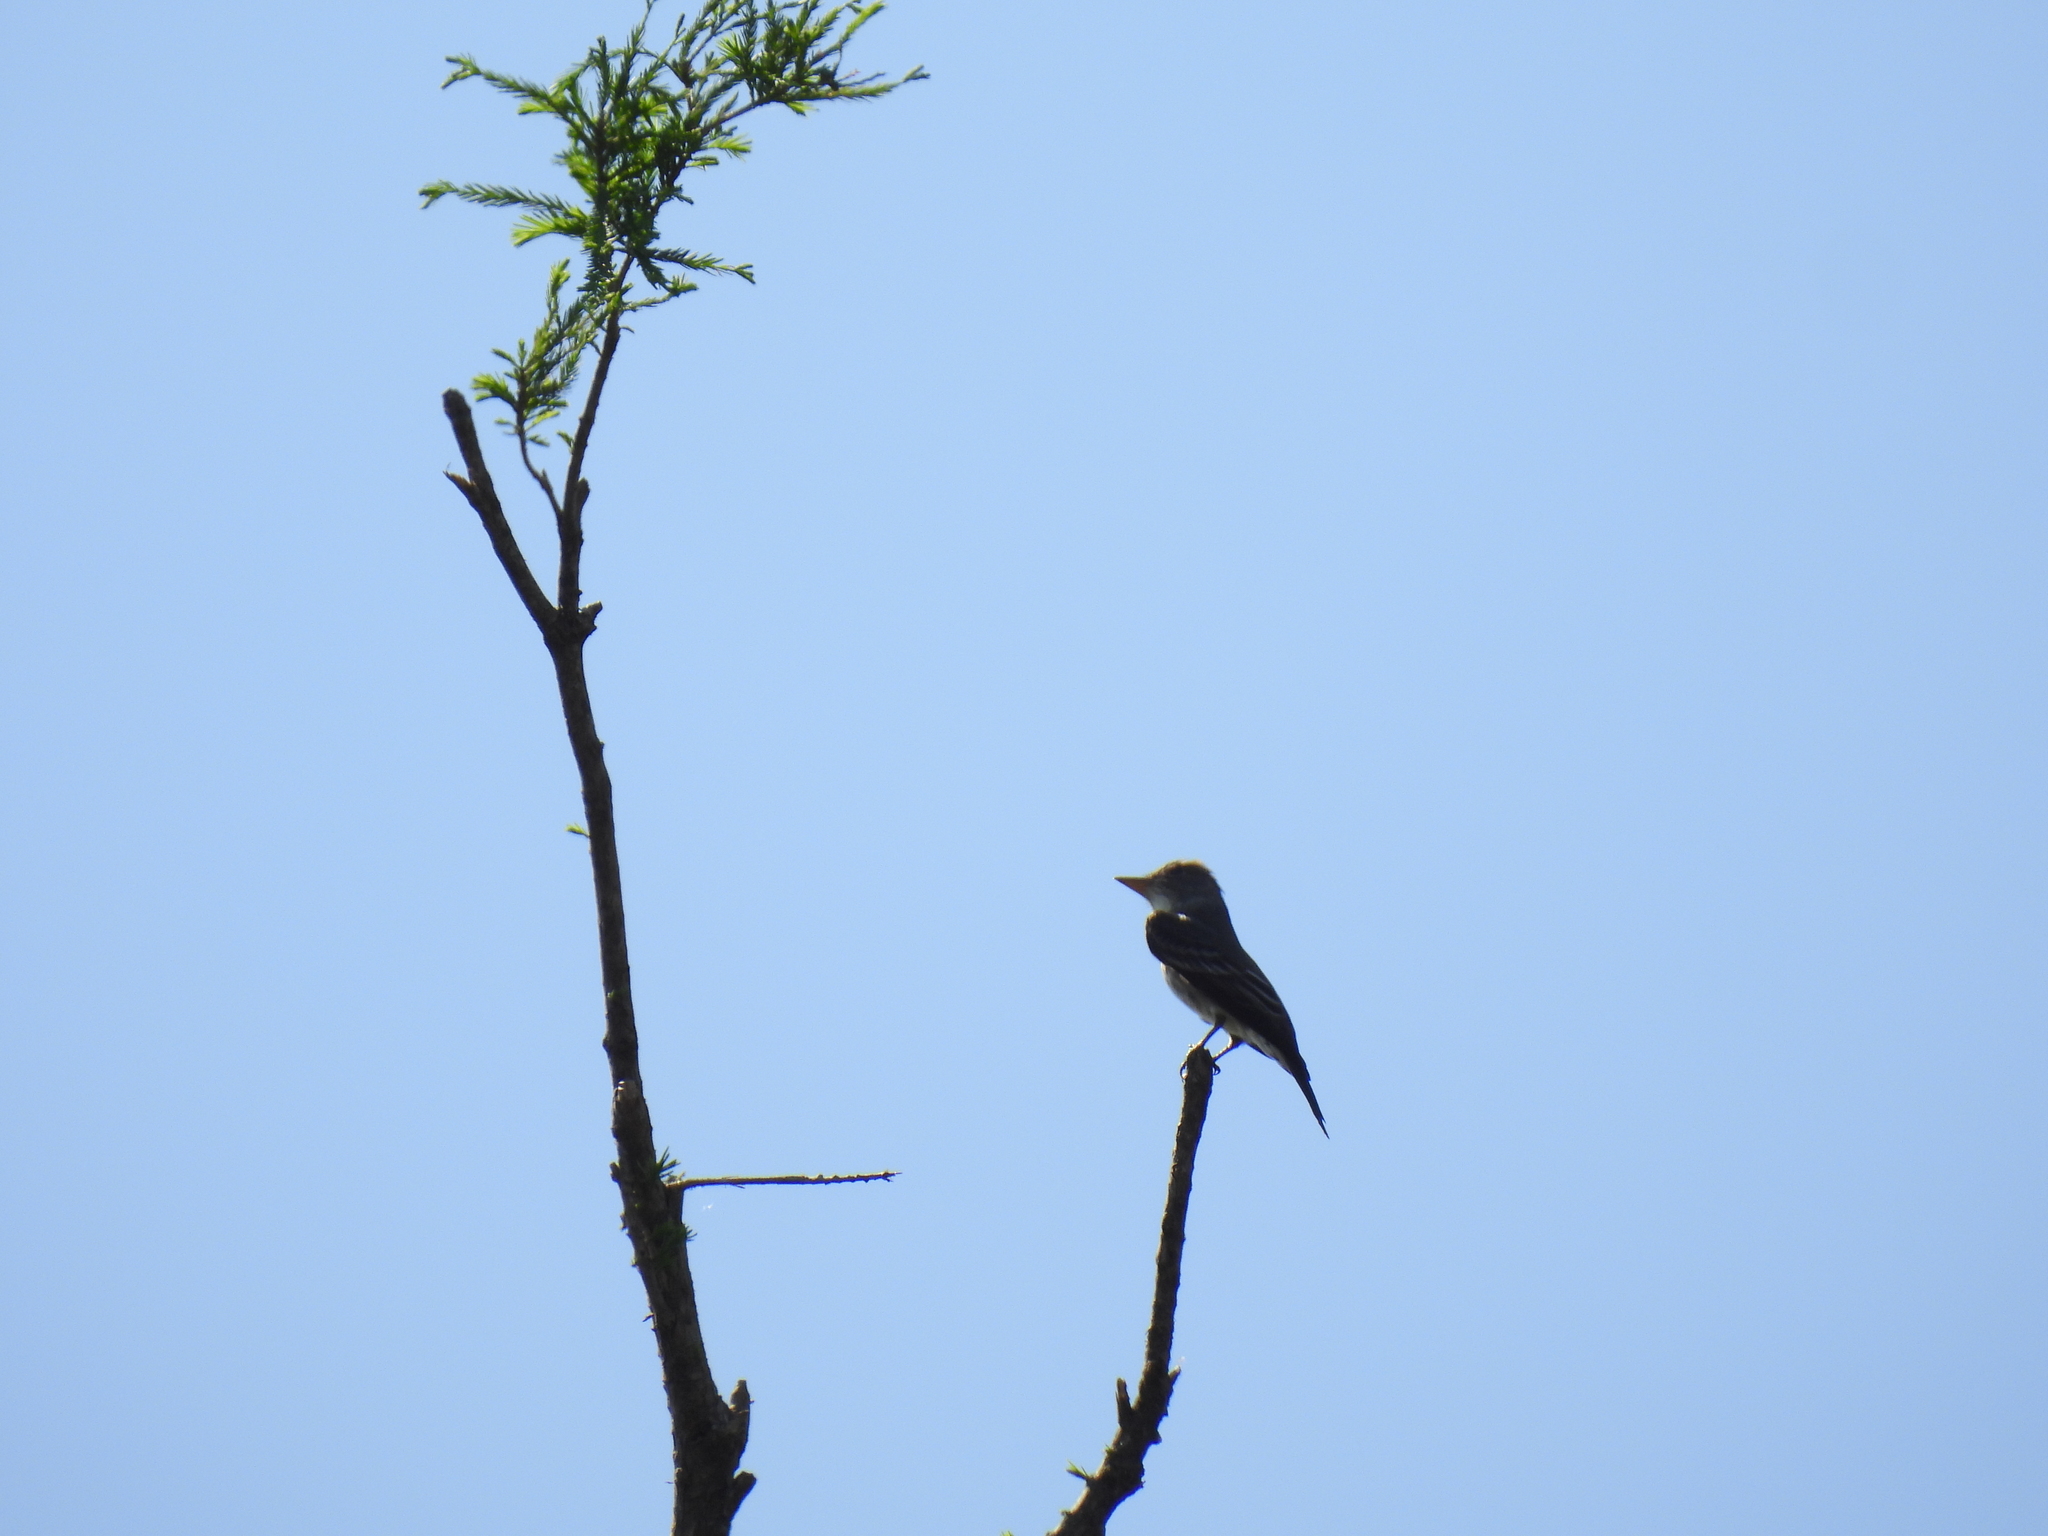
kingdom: Animalia
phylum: Chordata
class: Aves
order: Passeriformes
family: Tyrannidae
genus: Contopus
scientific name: Contopus cooperi
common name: Olive-sided flycatcher
